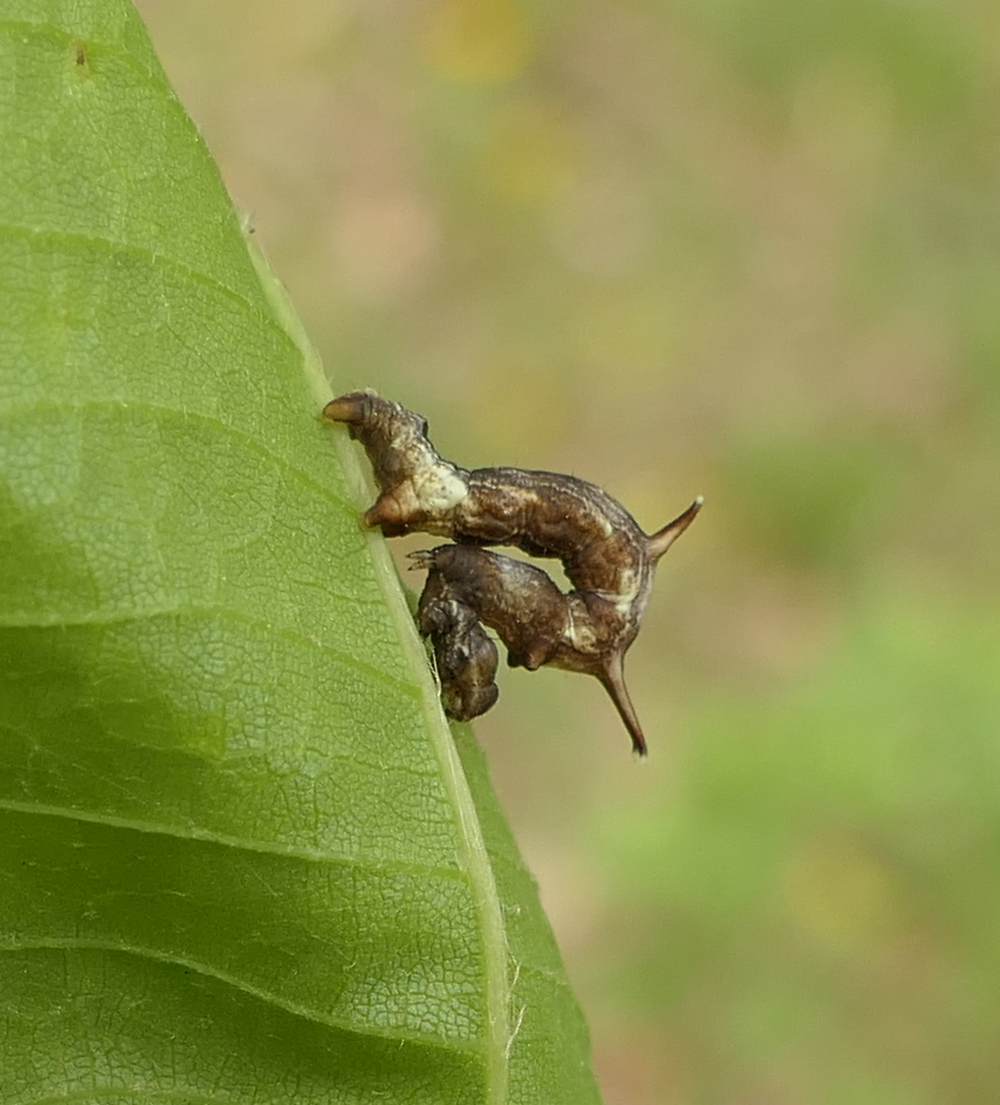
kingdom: Animalia
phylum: Arthropoda
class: Insecta
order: Lepidoptera
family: Geometridae
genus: Nematocampa
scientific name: Nematocampa resistaria
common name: Horned spanworm moth
